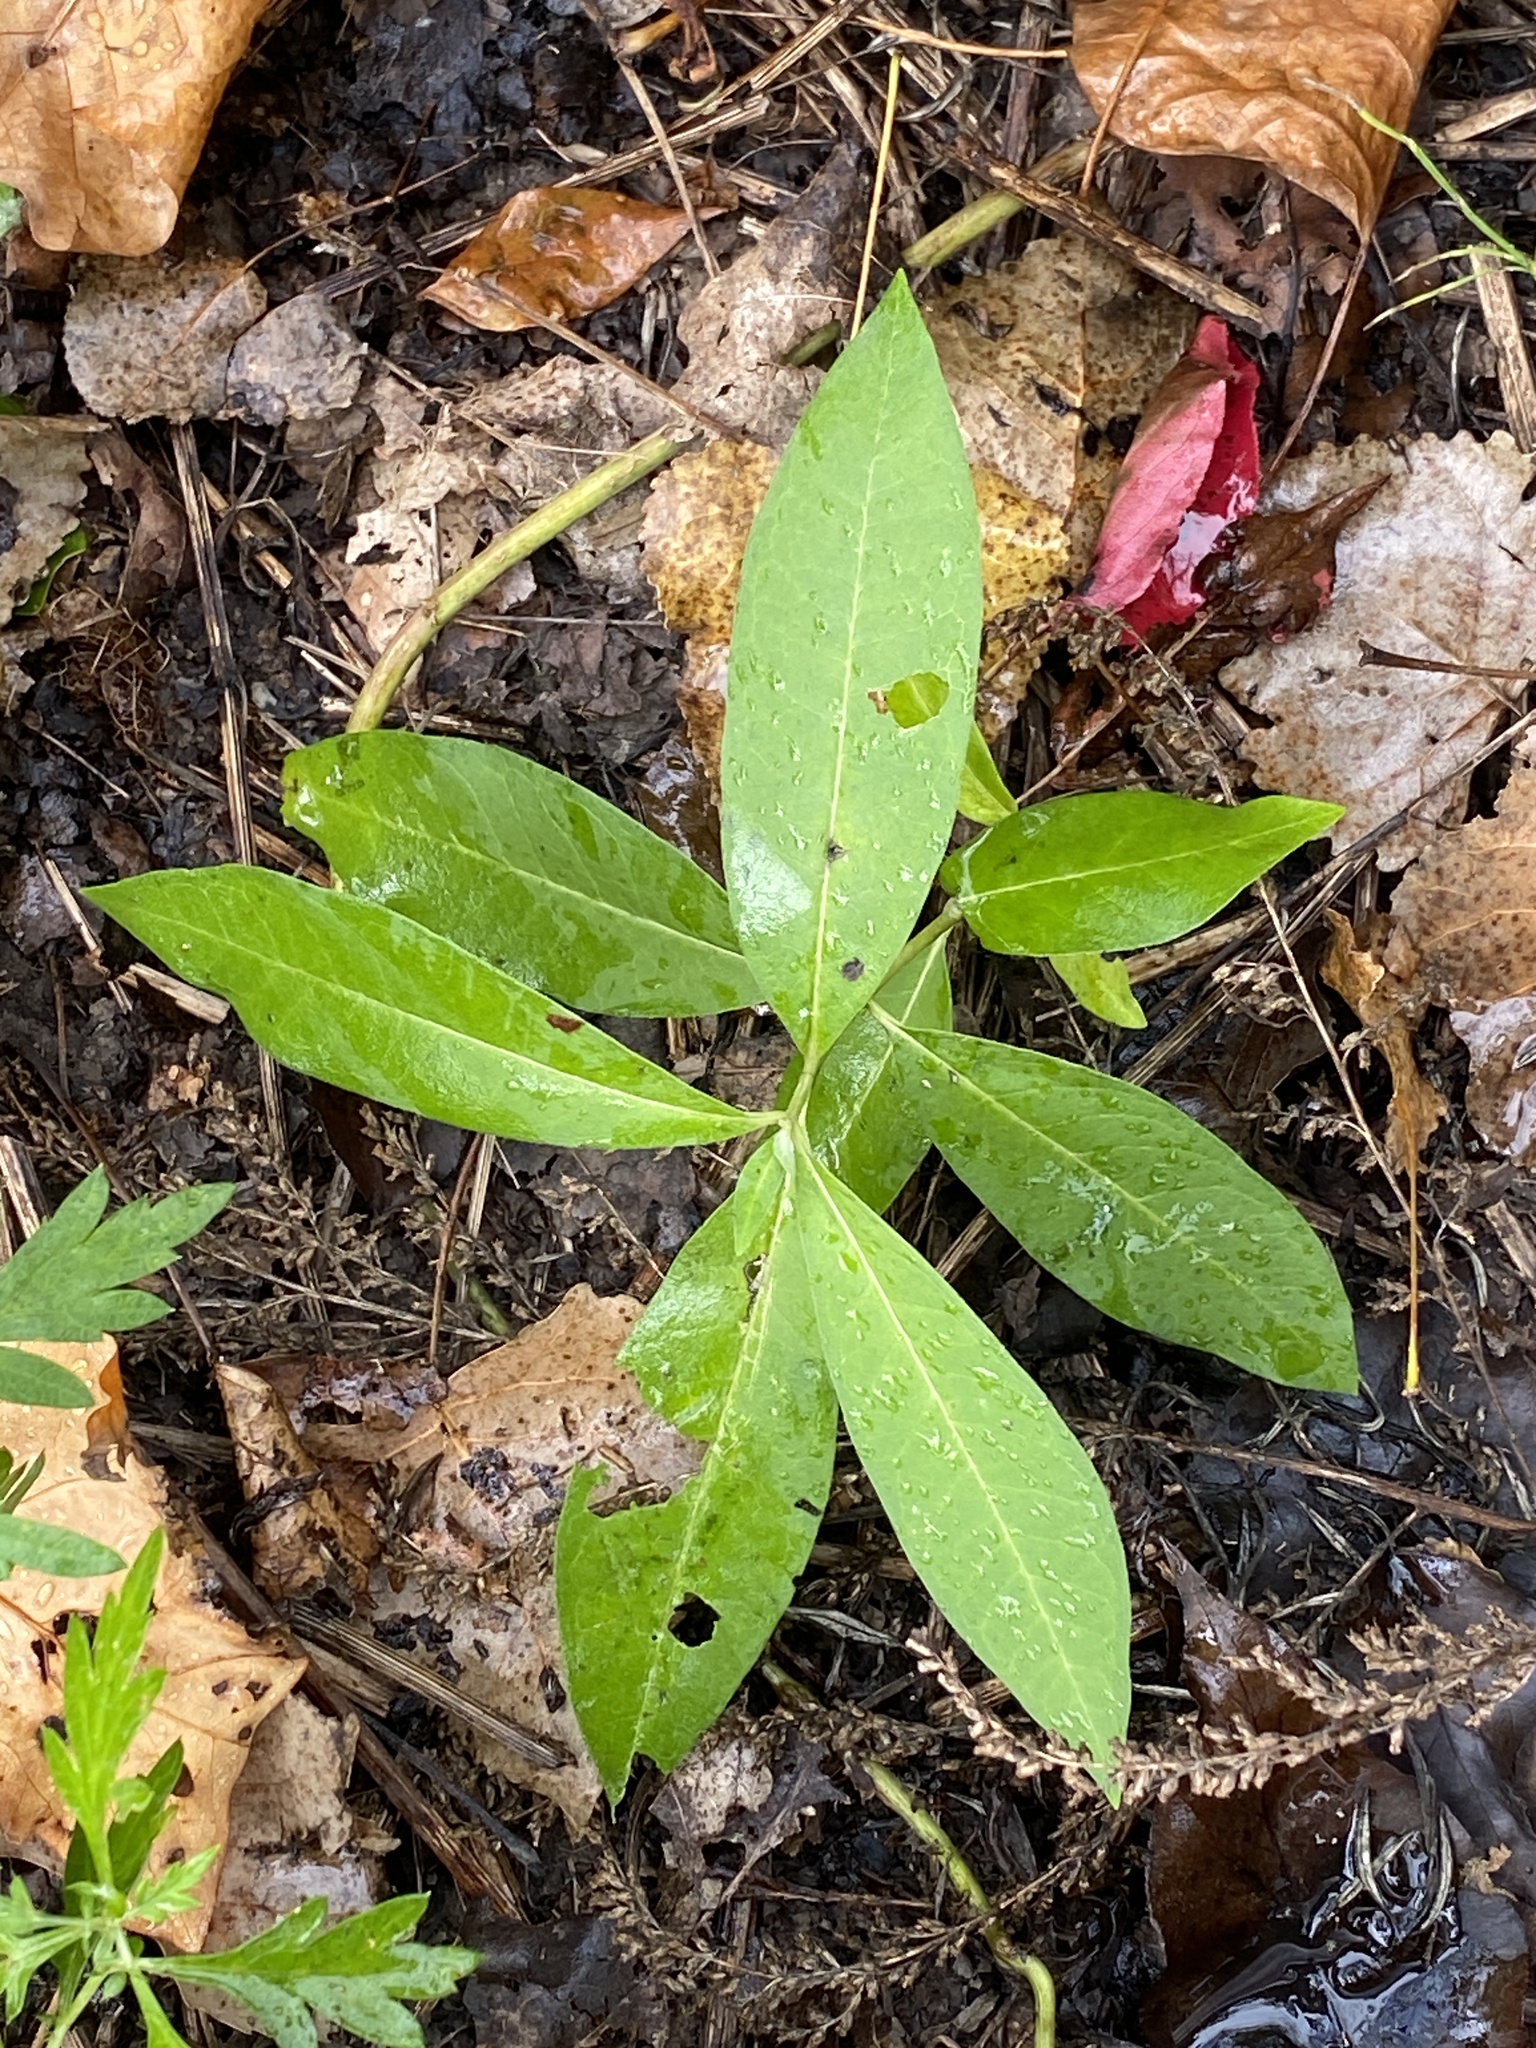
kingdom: Plantae
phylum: Tracheophyta
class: Magnoliopsida
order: Gentianales
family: Apocynaceae
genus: Asclepias
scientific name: Asclepias syriaca
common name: Common milkweed
